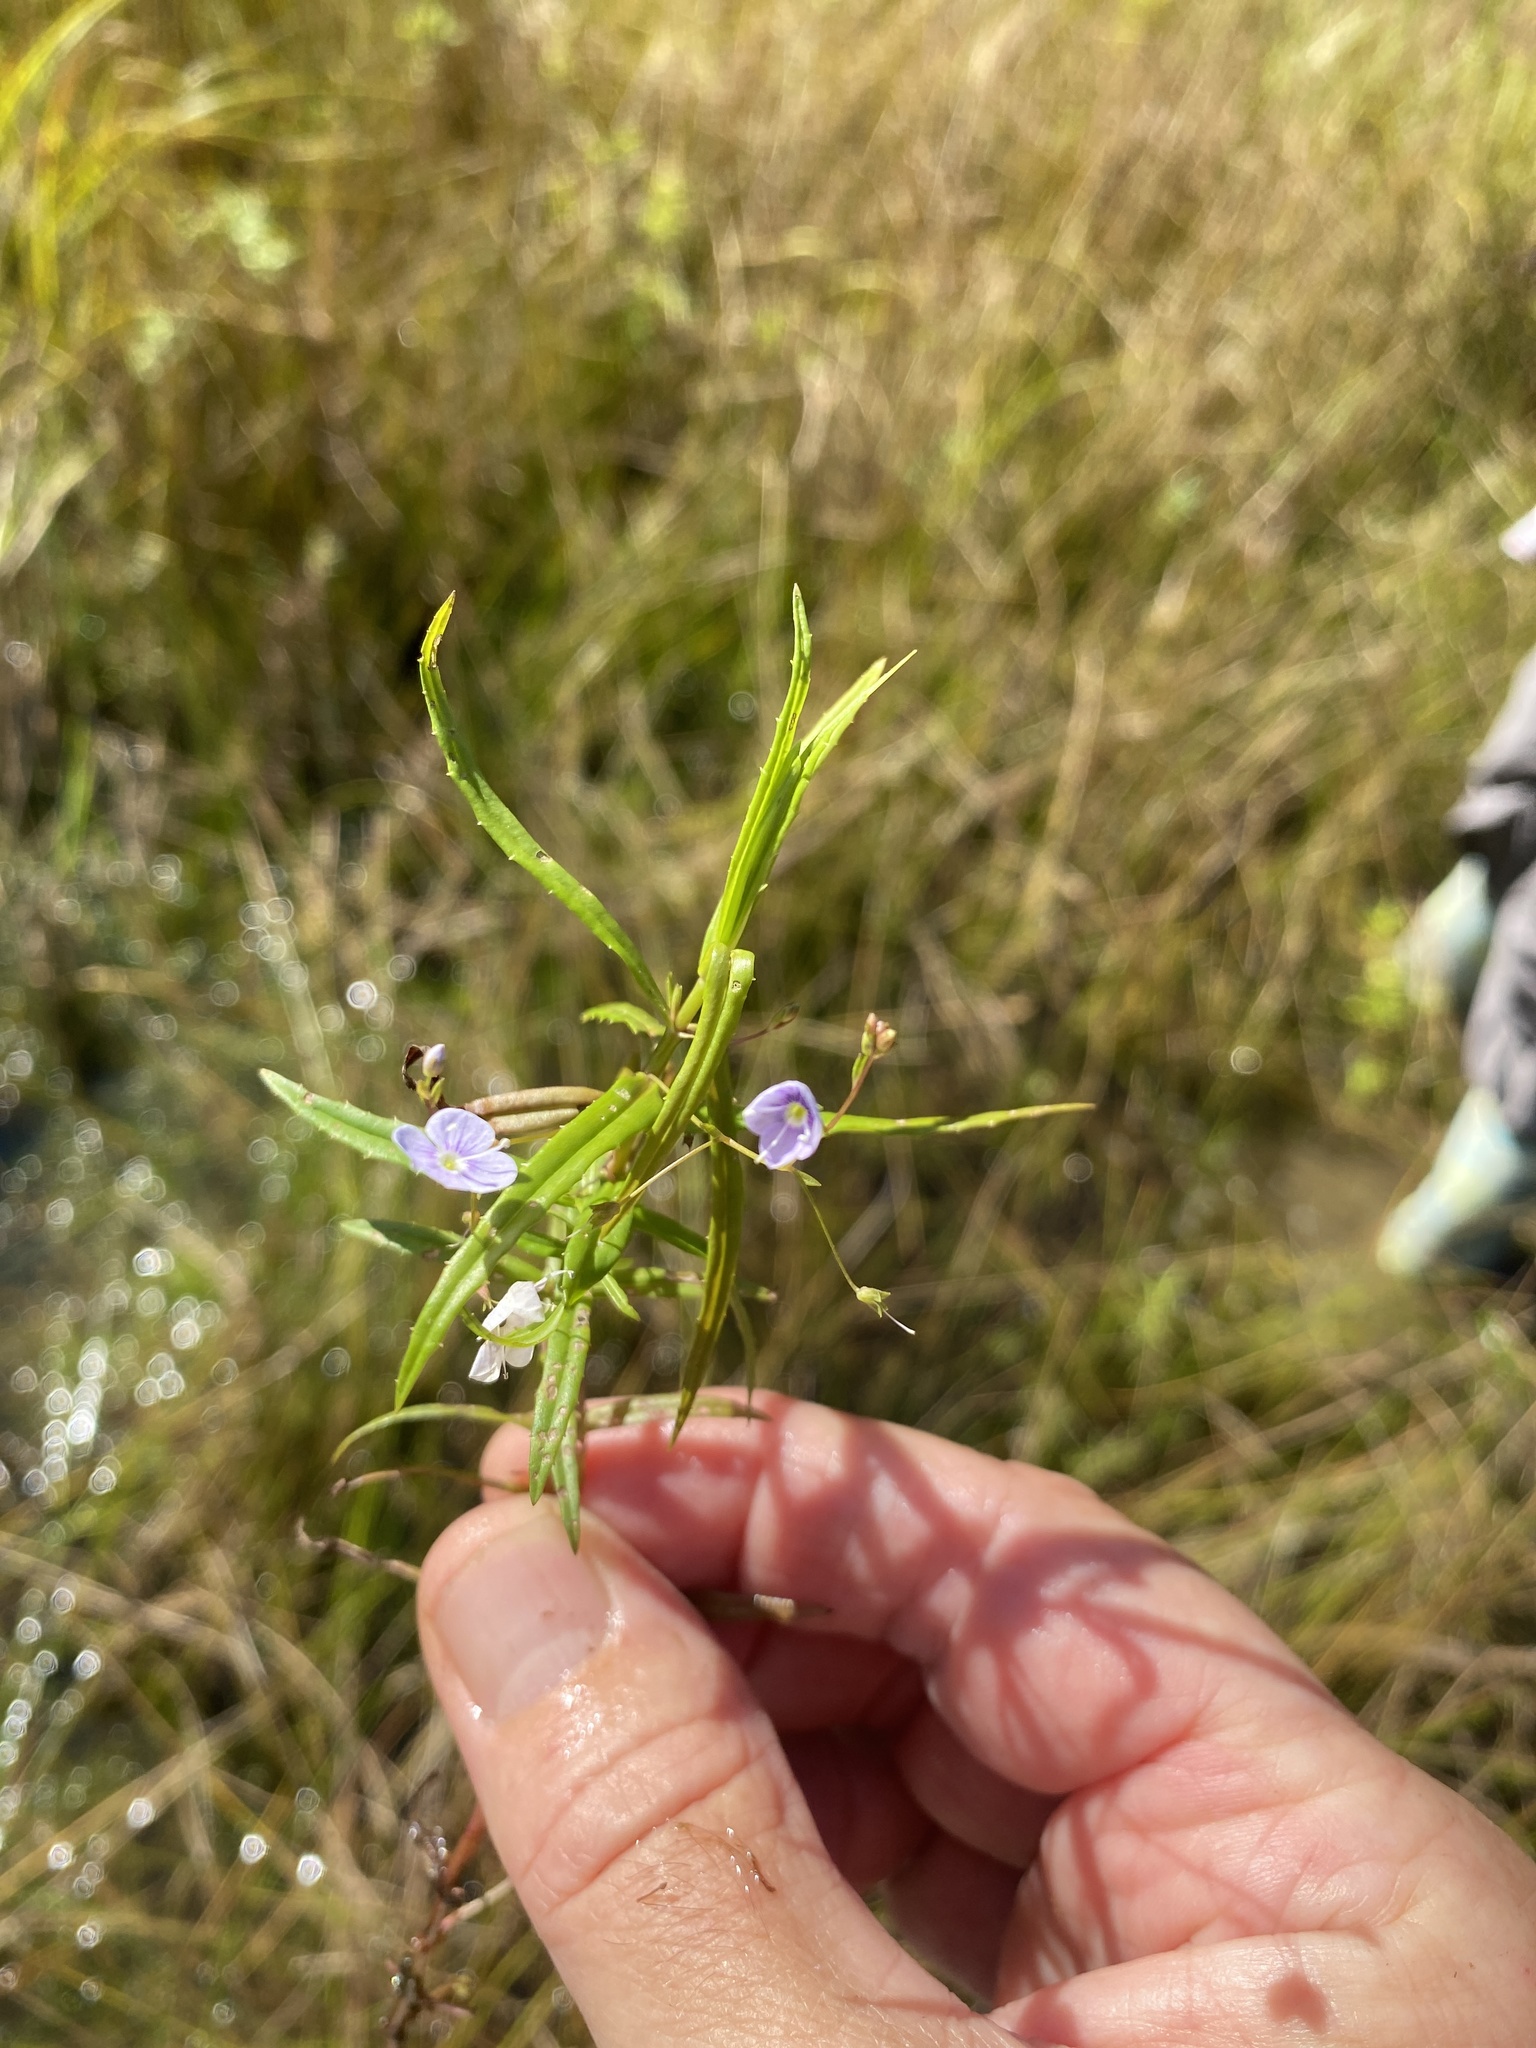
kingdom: Plantae
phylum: Tracheophyta
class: Magnoliopsida
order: Lamiales
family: Plantaginaceae
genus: Veronica
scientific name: Veronica scutellata
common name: Marsh speedwell
